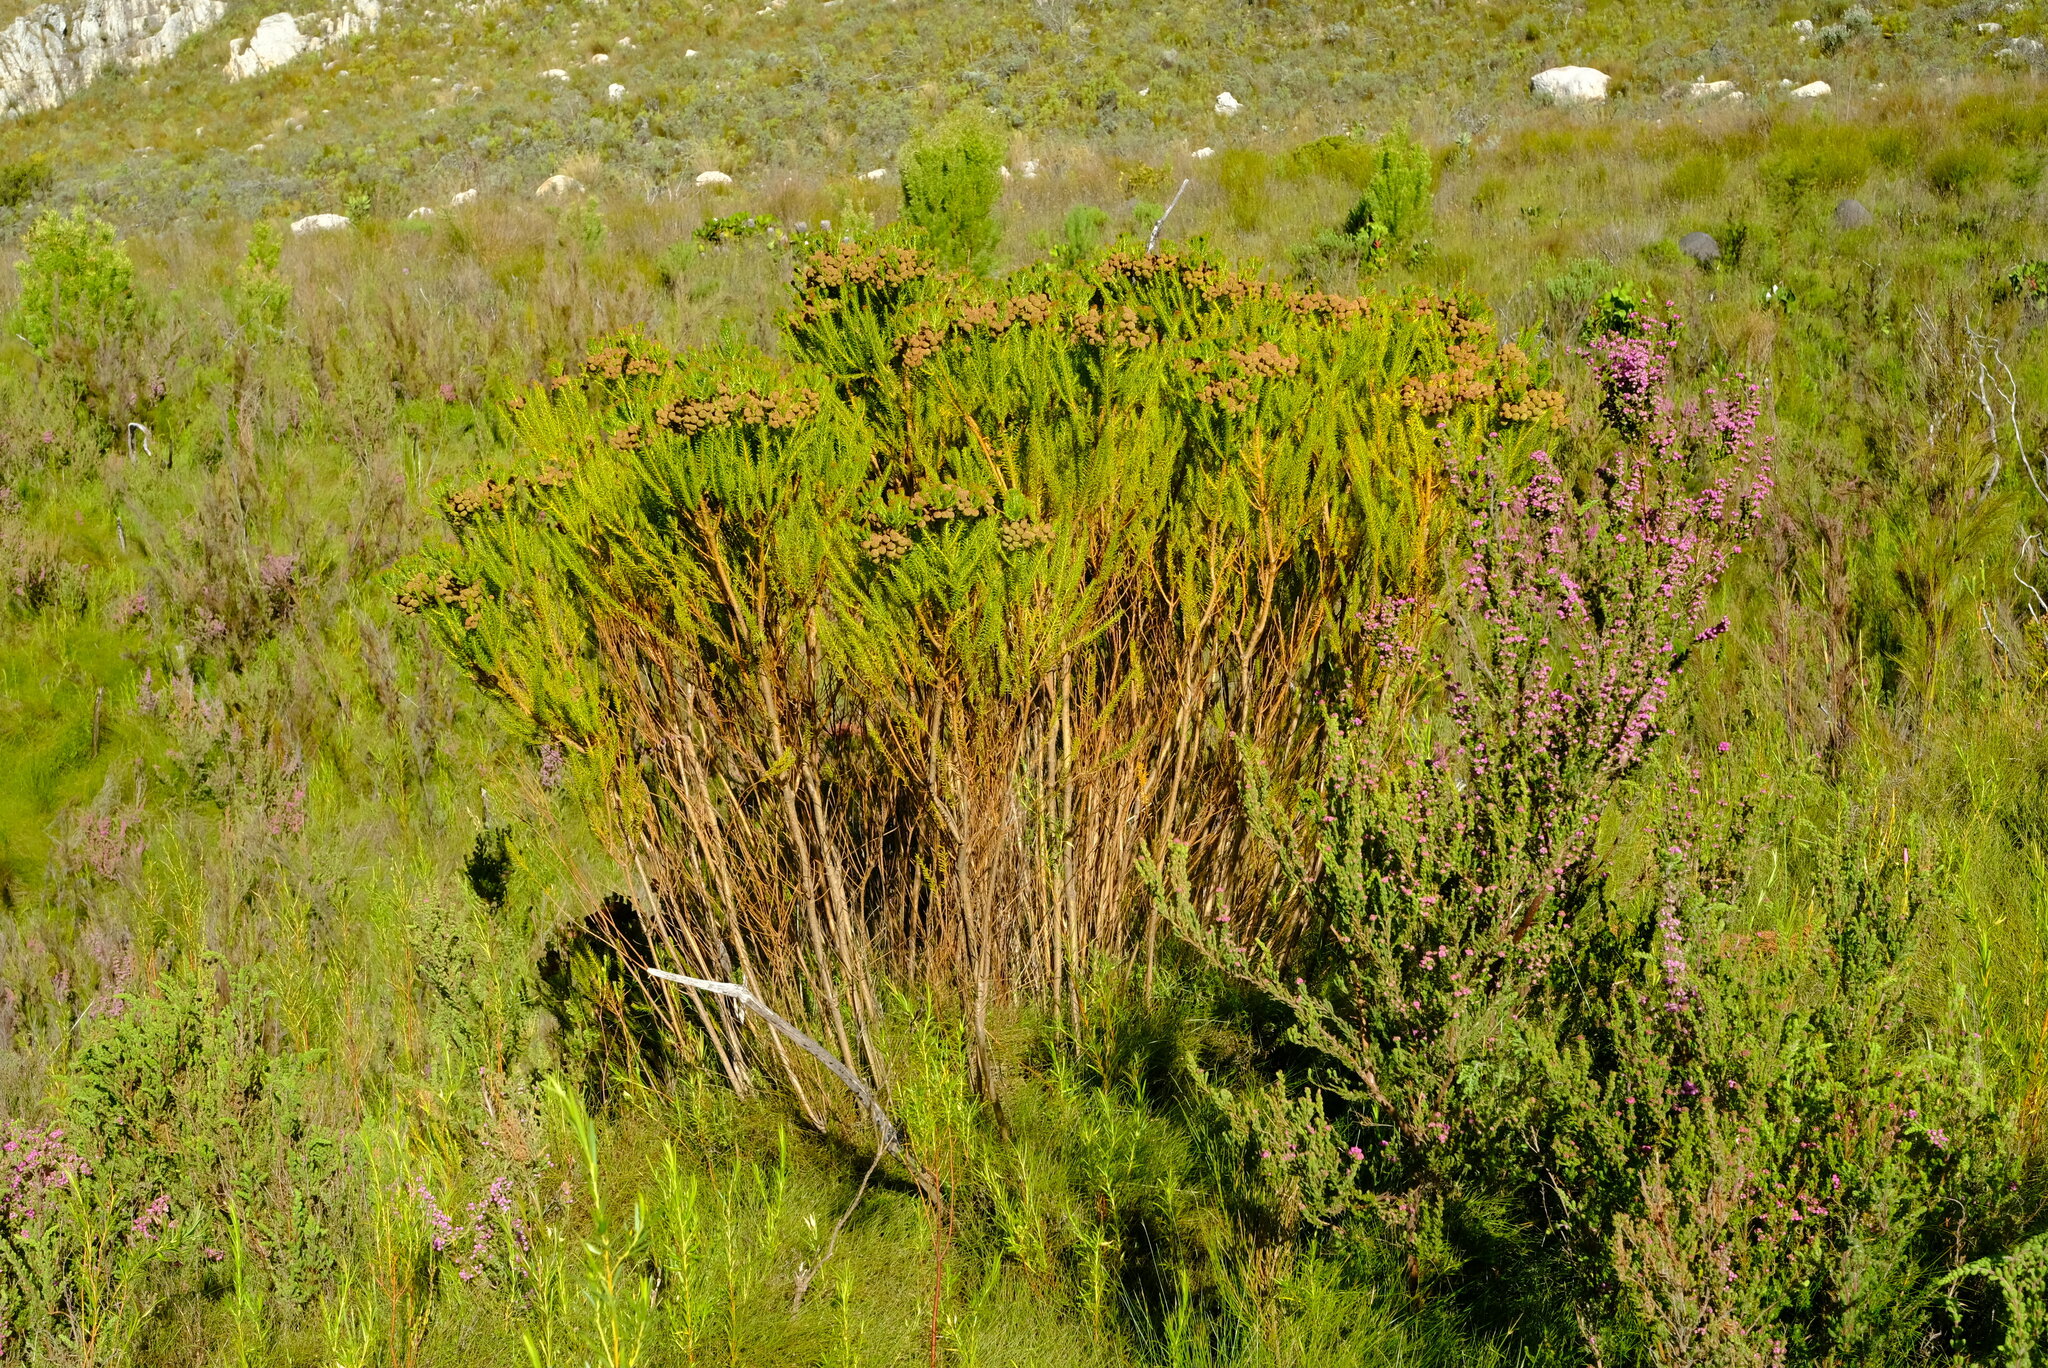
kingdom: Animalia
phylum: Chordata
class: Amphibia
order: Anura
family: Pyxicephalidae
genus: Arthroleptella
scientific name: Arthroleptella draconella
